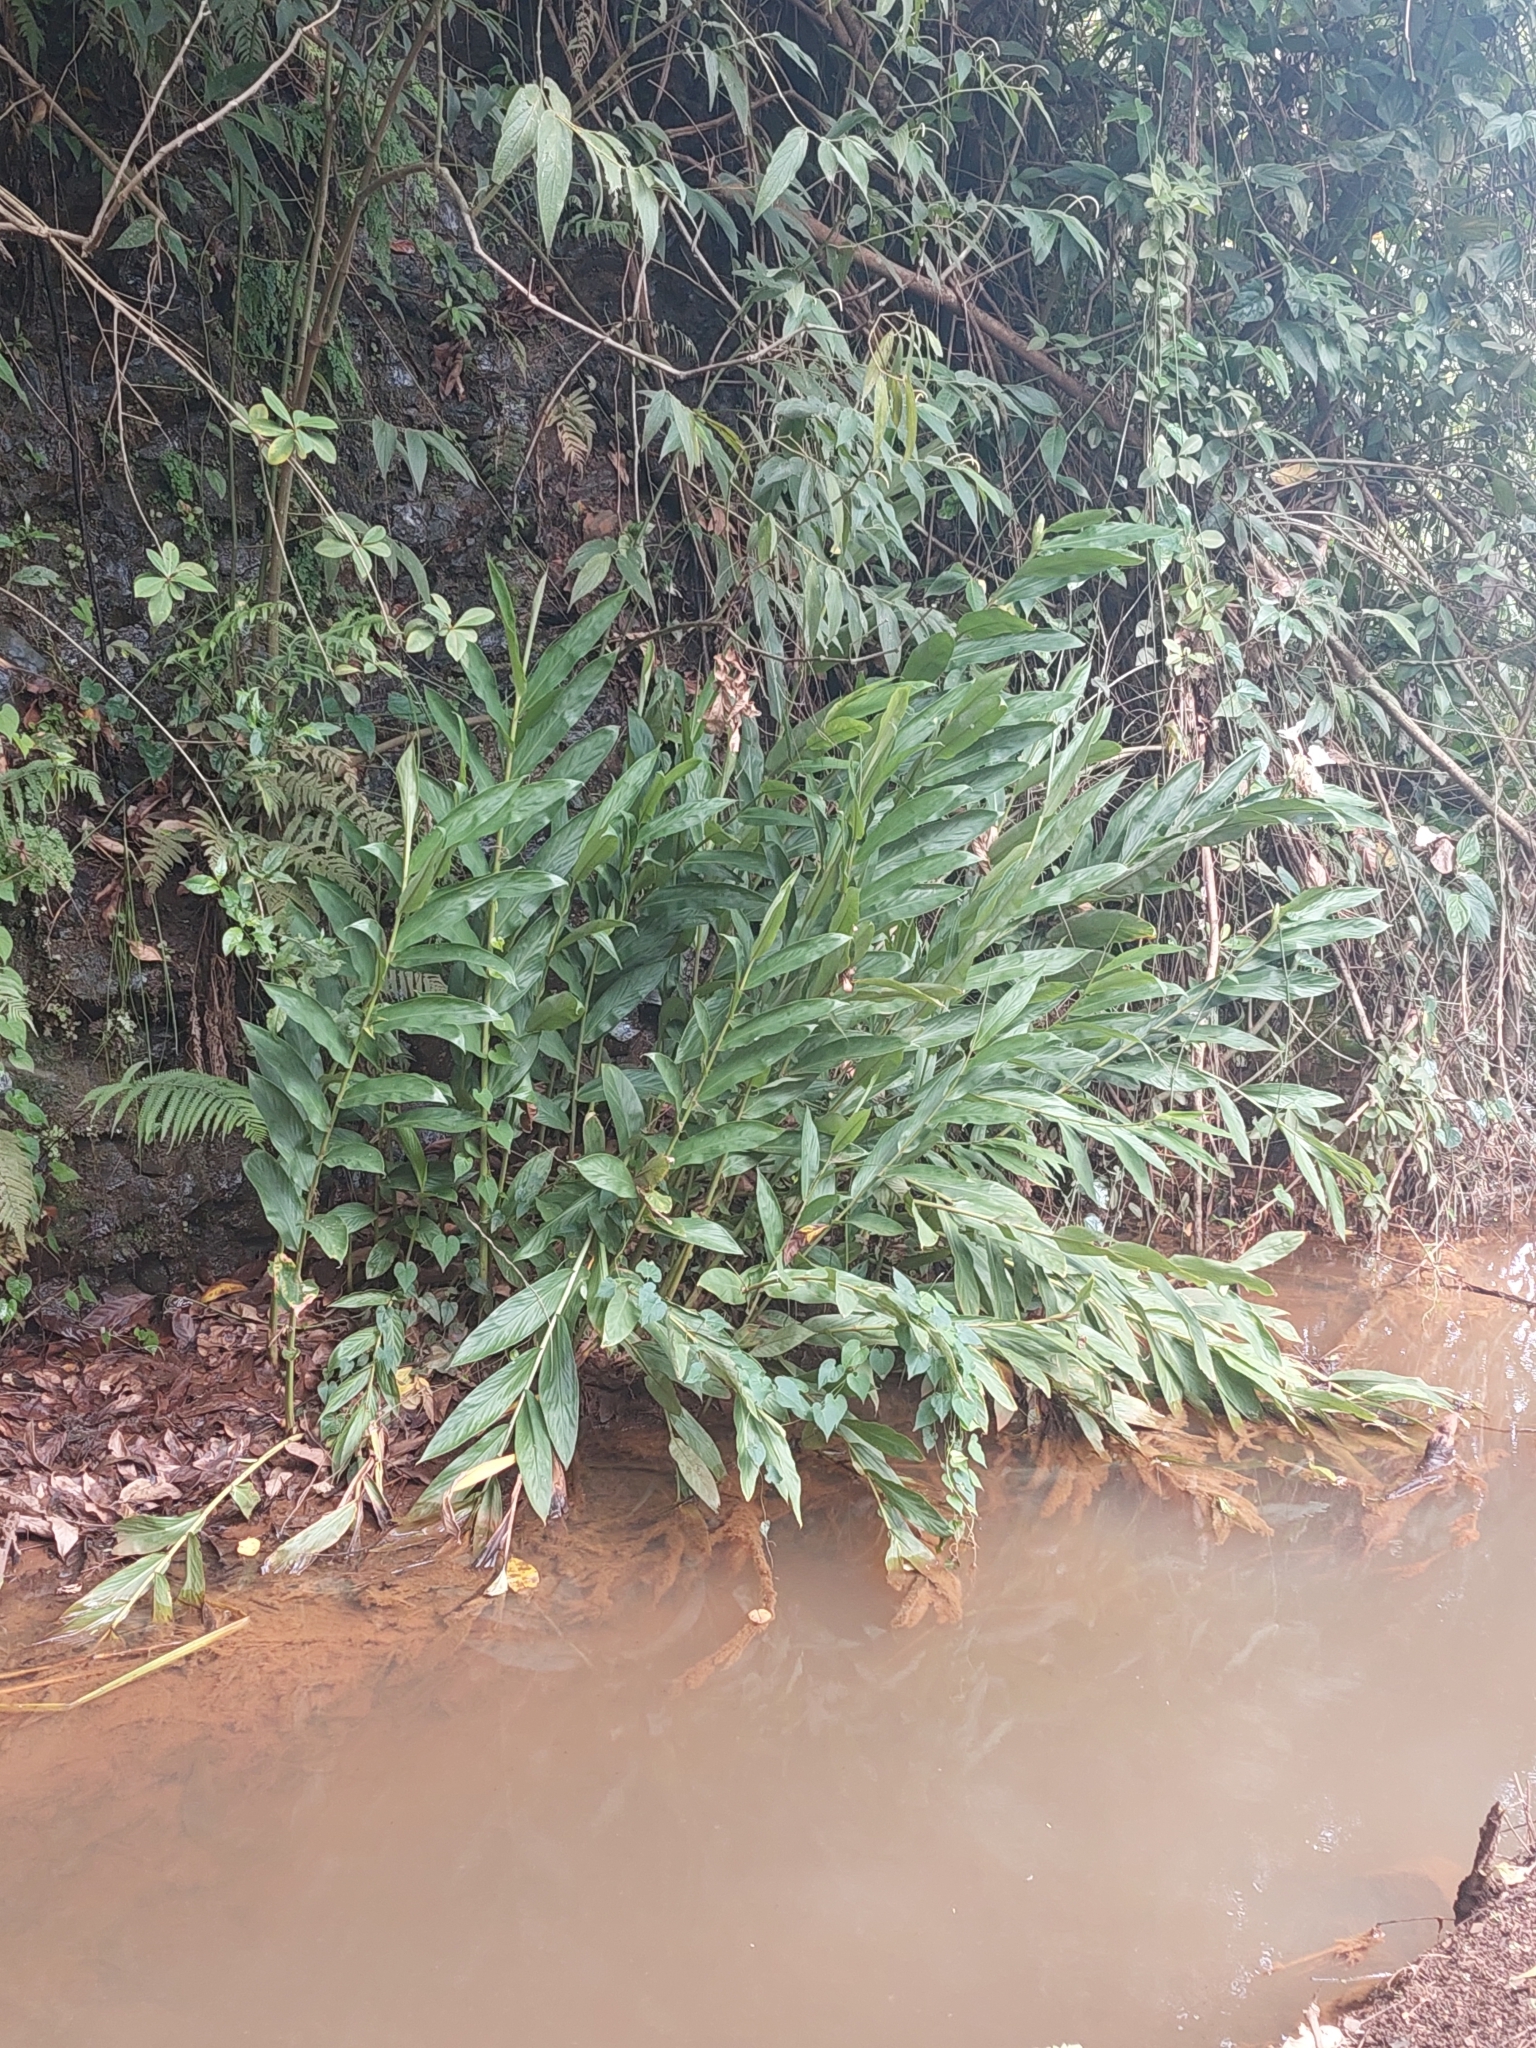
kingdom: Plantae
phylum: Tracheophyta
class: Liliopsida
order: Zingiberales
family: Zingiberaceae
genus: Hedychium
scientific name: Hedychium coronarium
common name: White garland-lily
